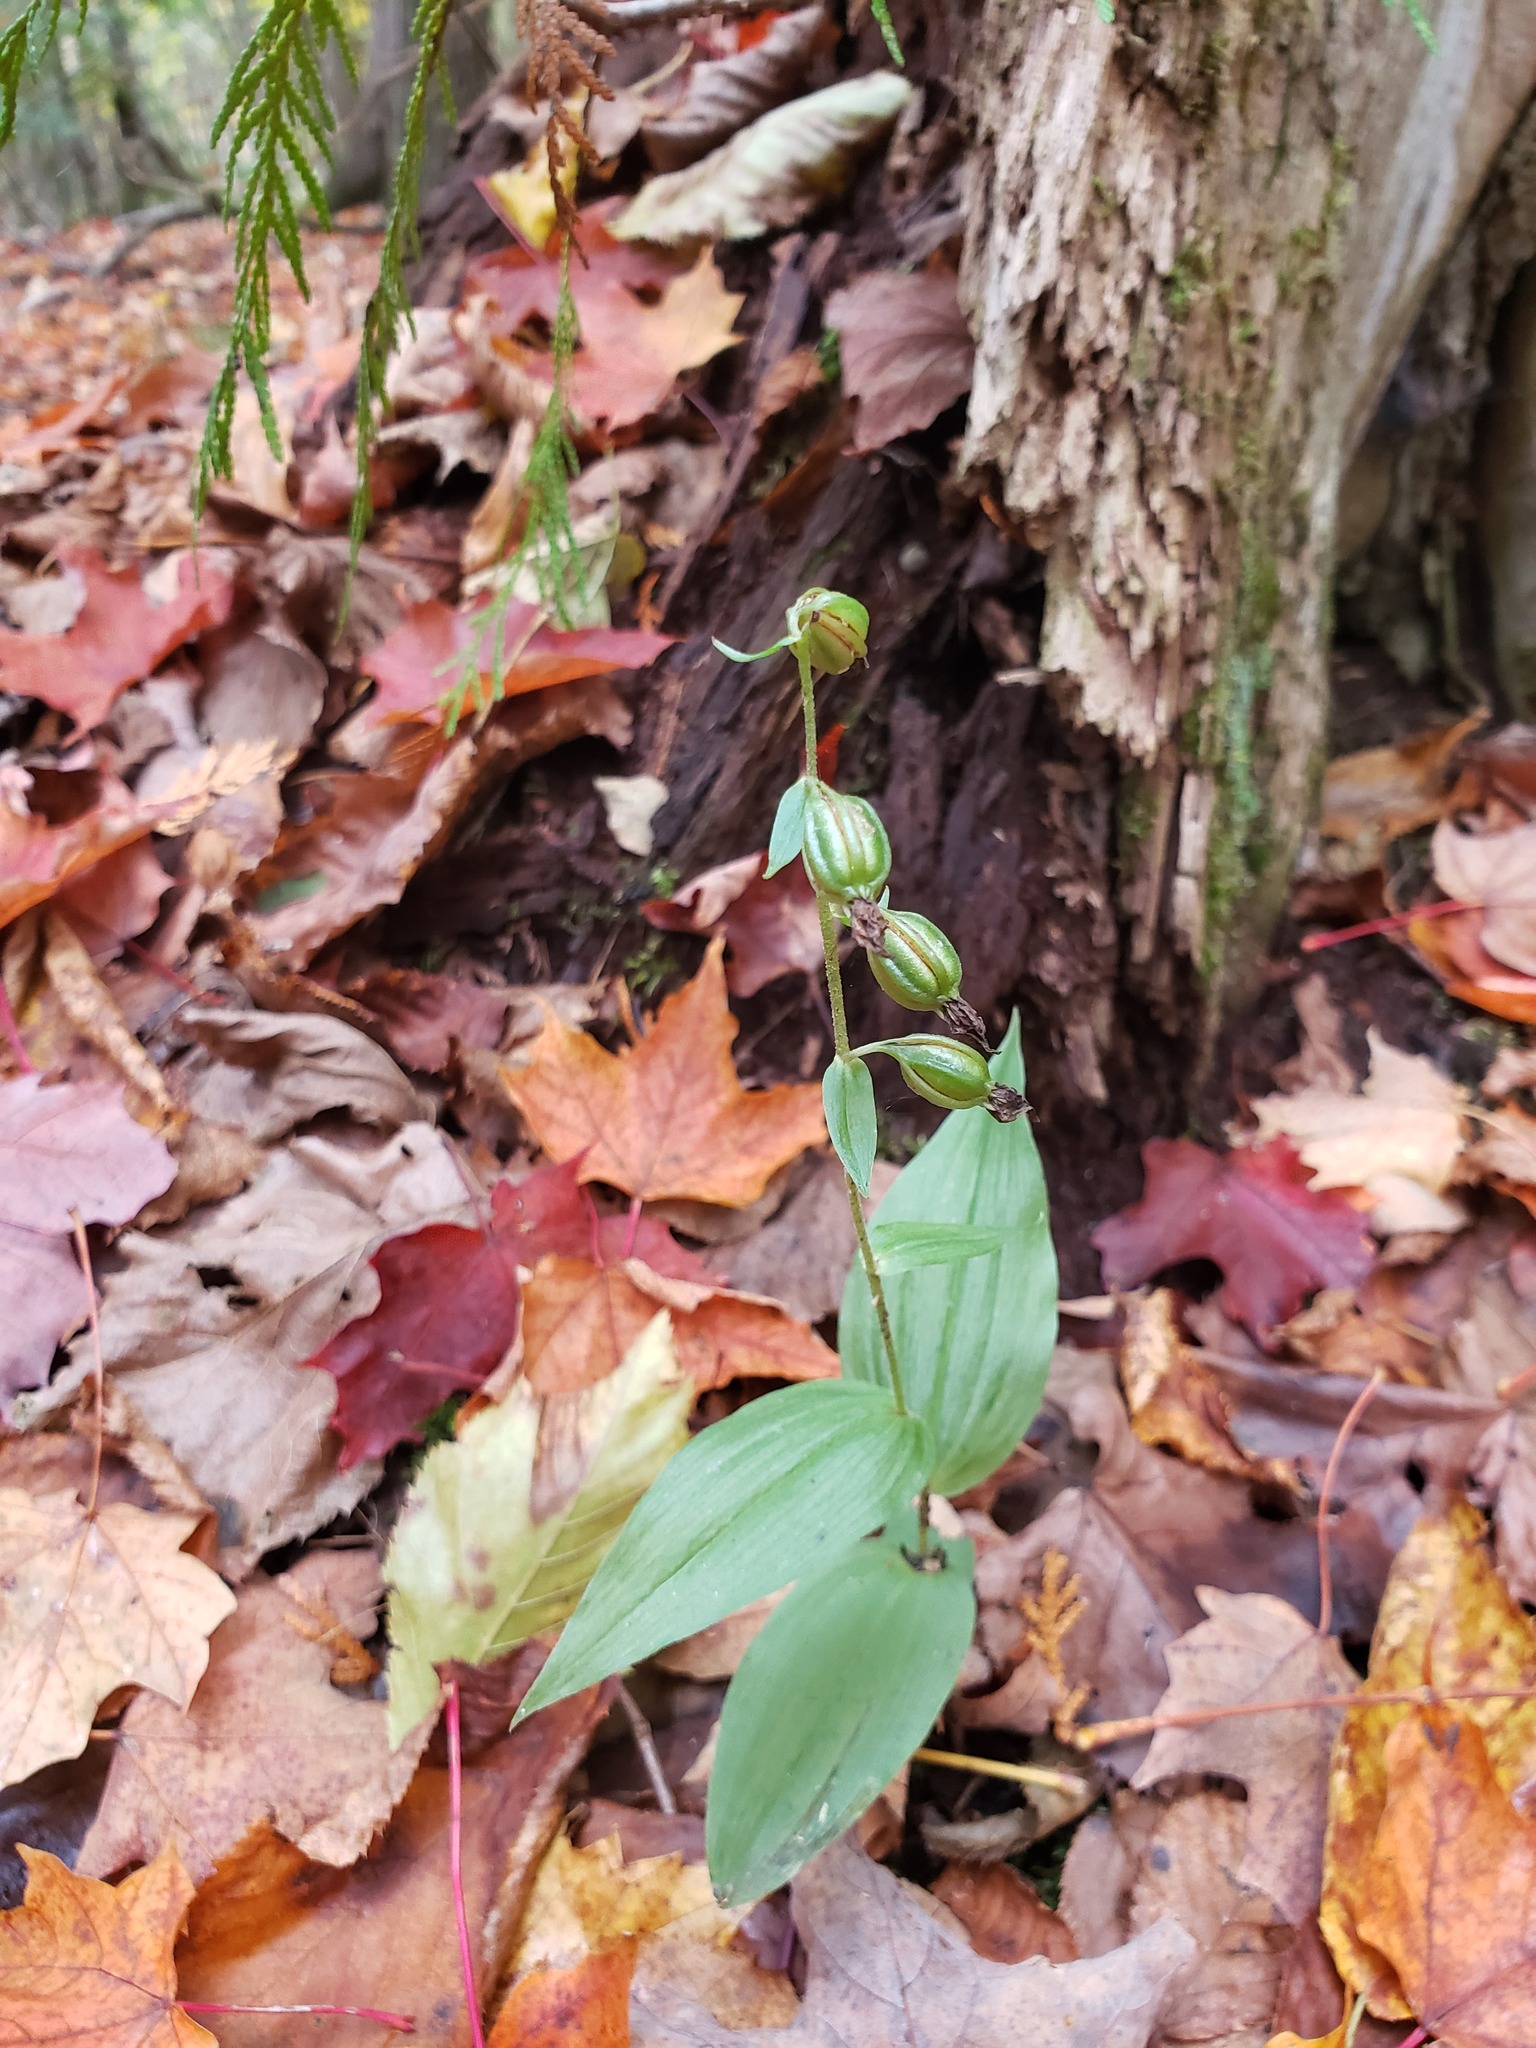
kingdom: Plantae
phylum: Tracheophyta
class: Liliopsida
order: Asparagales
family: Orchidaceae
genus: Epipactis
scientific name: Epipactis helleborine
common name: Broad-leaved helleborine
